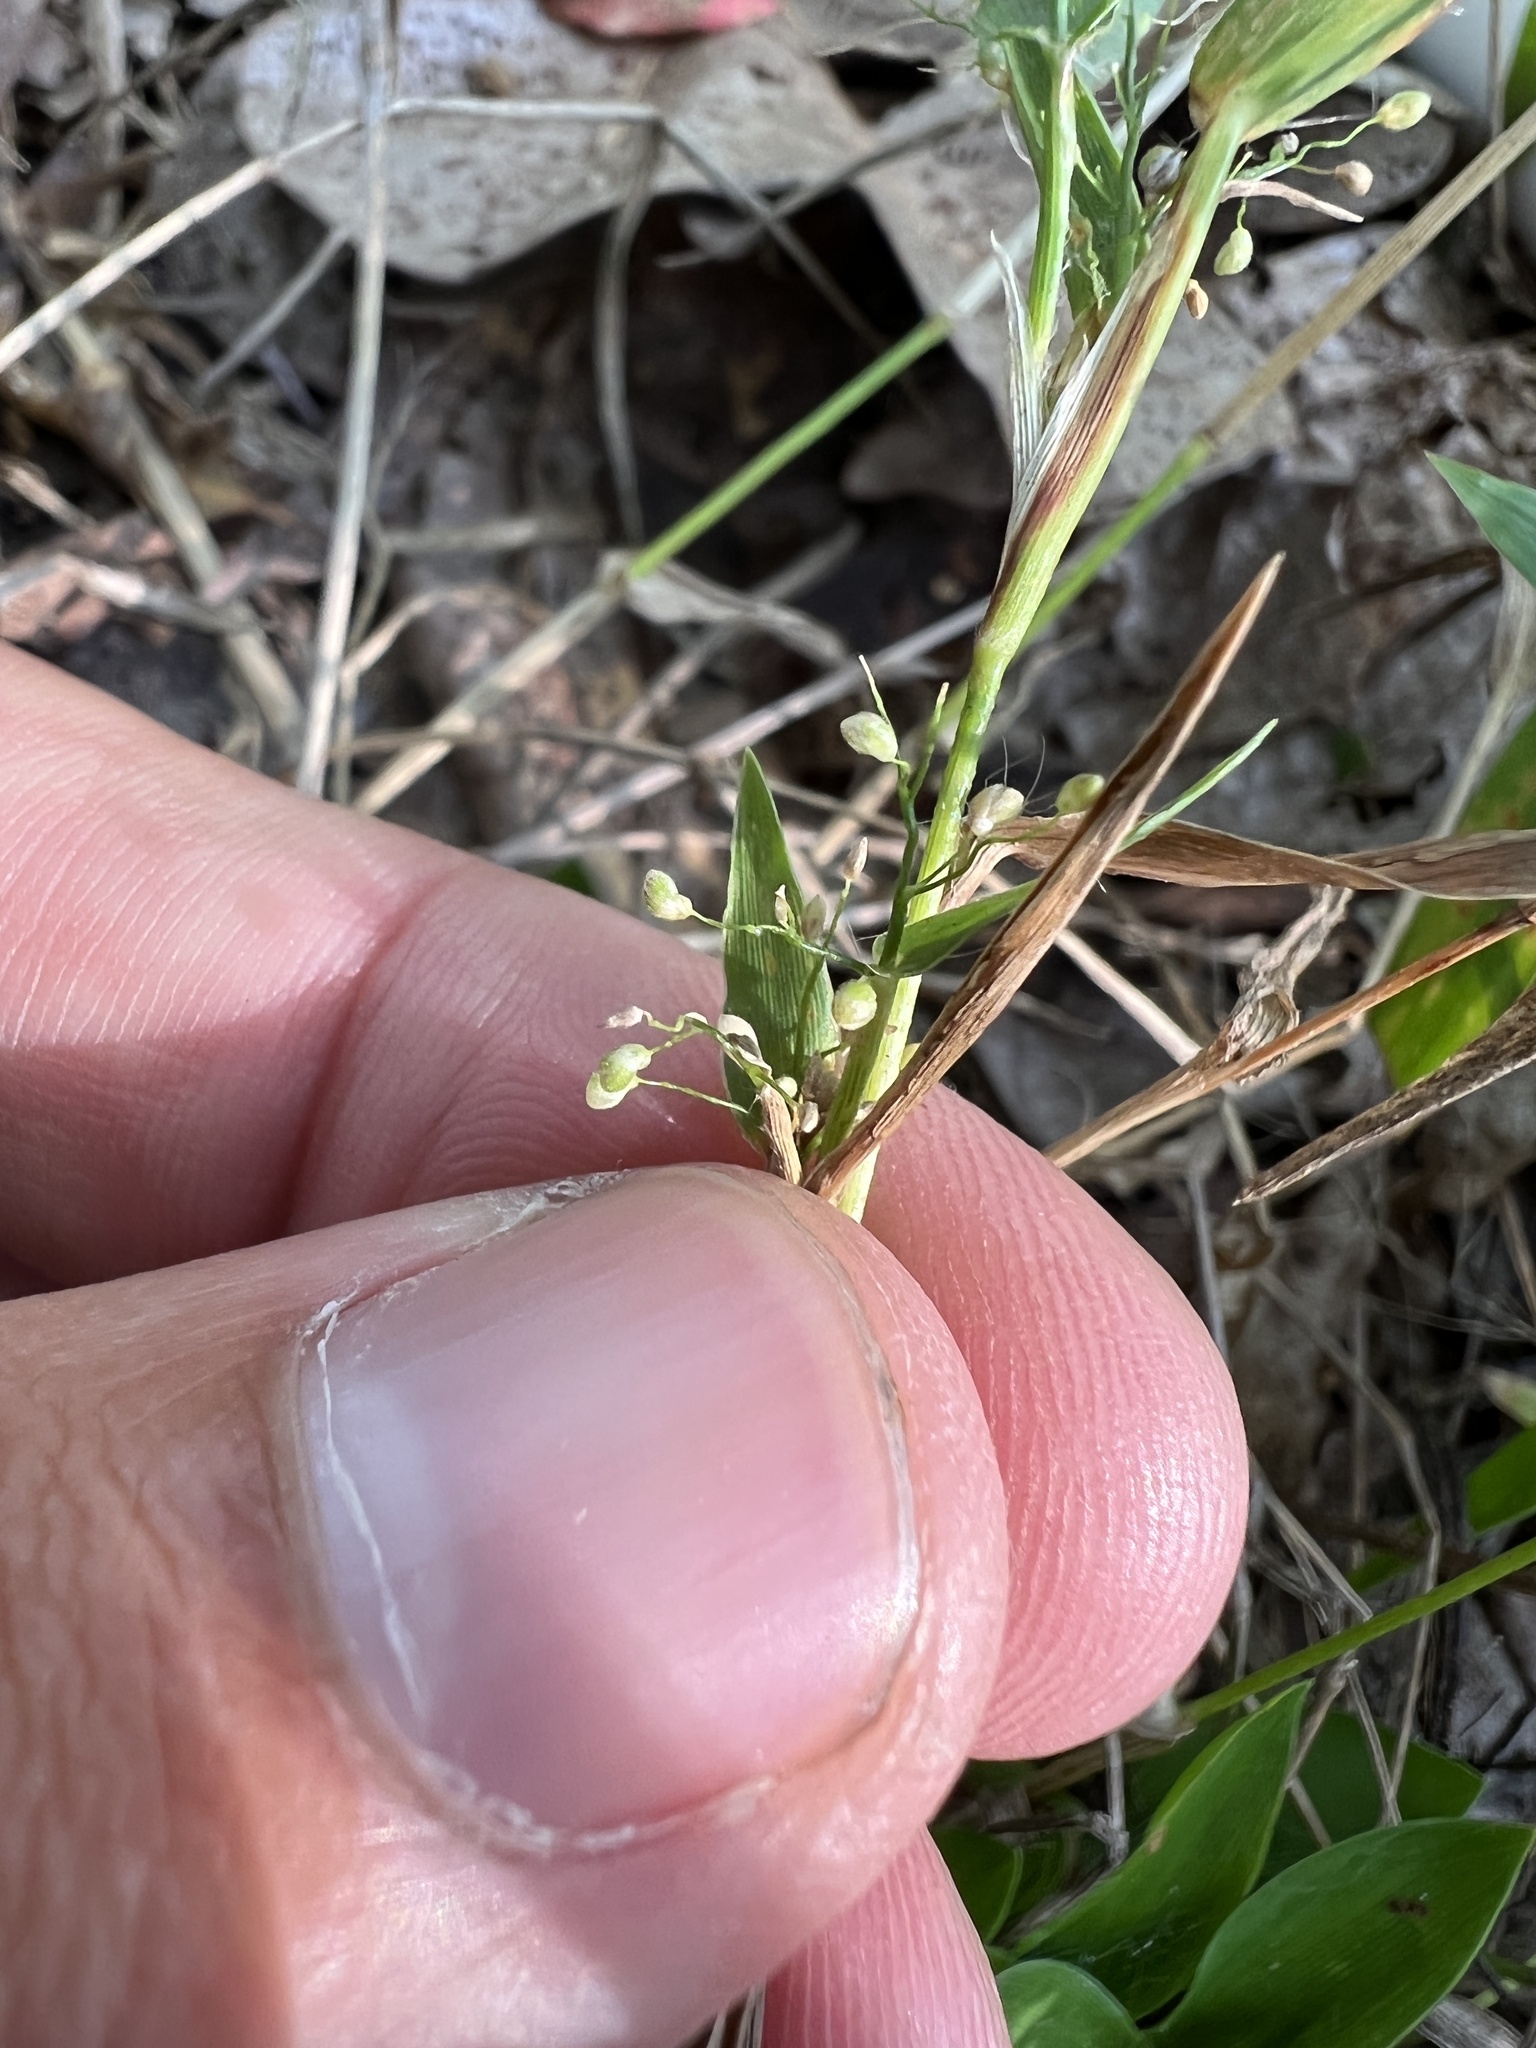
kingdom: Plantae
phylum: Tracheophyta
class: Liliopsida
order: Poales
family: Poaceae
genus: Dichanthelium
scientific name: Dichanthelium sphaerocarpon
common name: Round-fruited panicgrass
